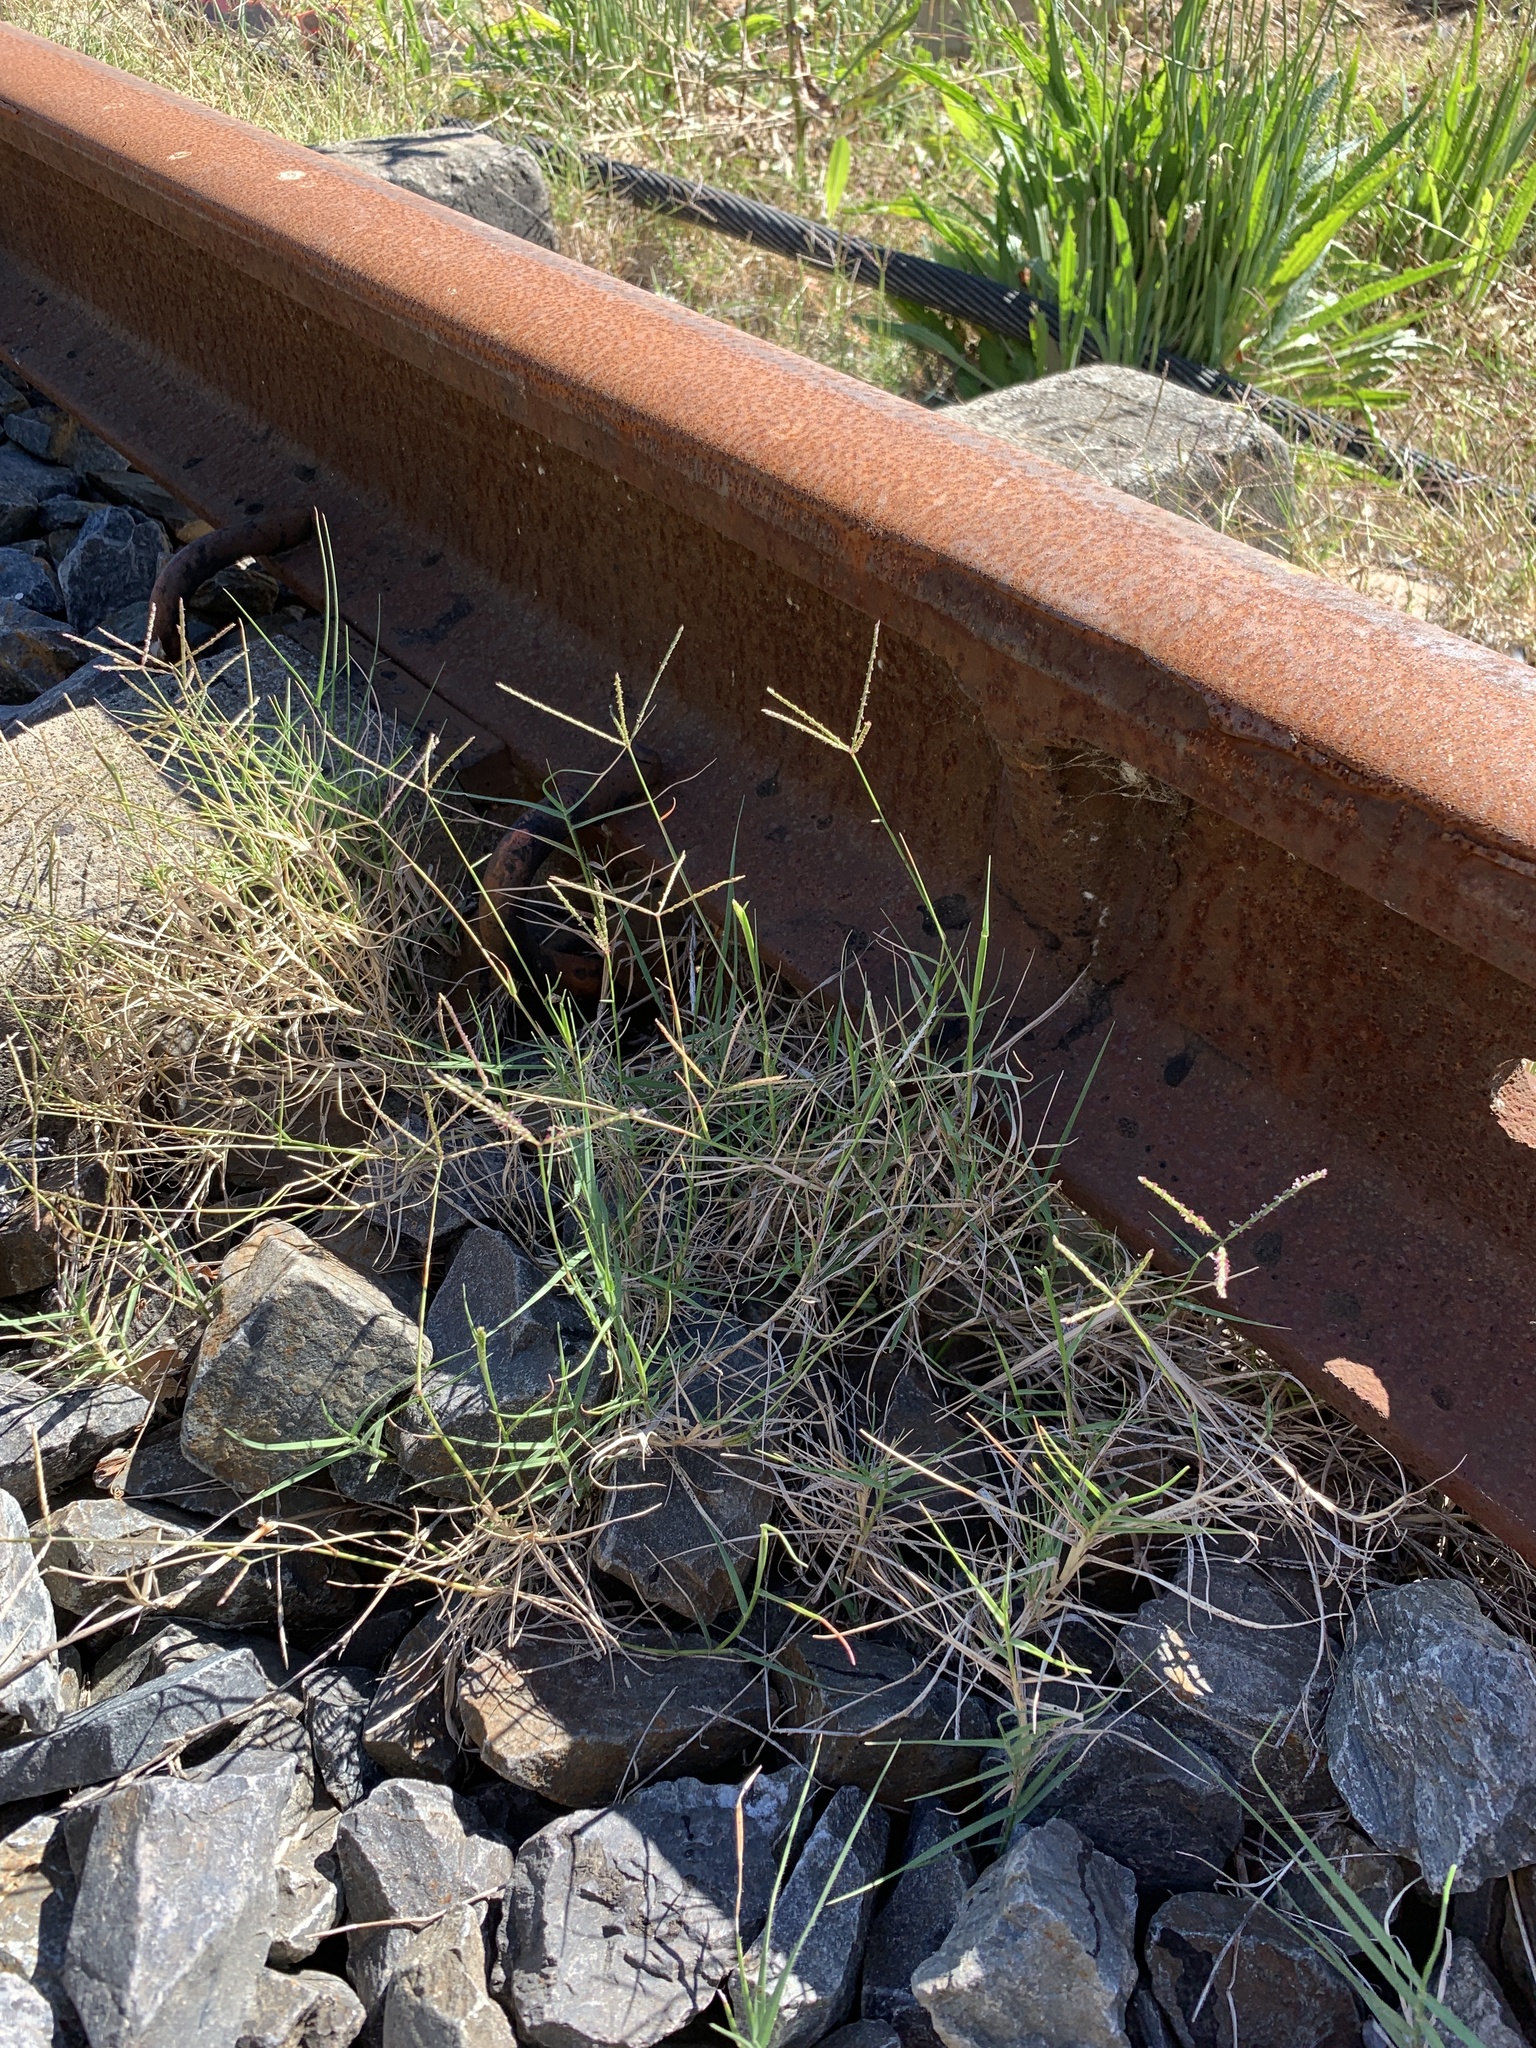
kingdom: Plantae
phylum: Tracheophyta
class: Liliopsida
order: Poales
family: Poaceae
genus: Cynodon
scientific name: Cynodon dactylon
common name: Bermuda grass
